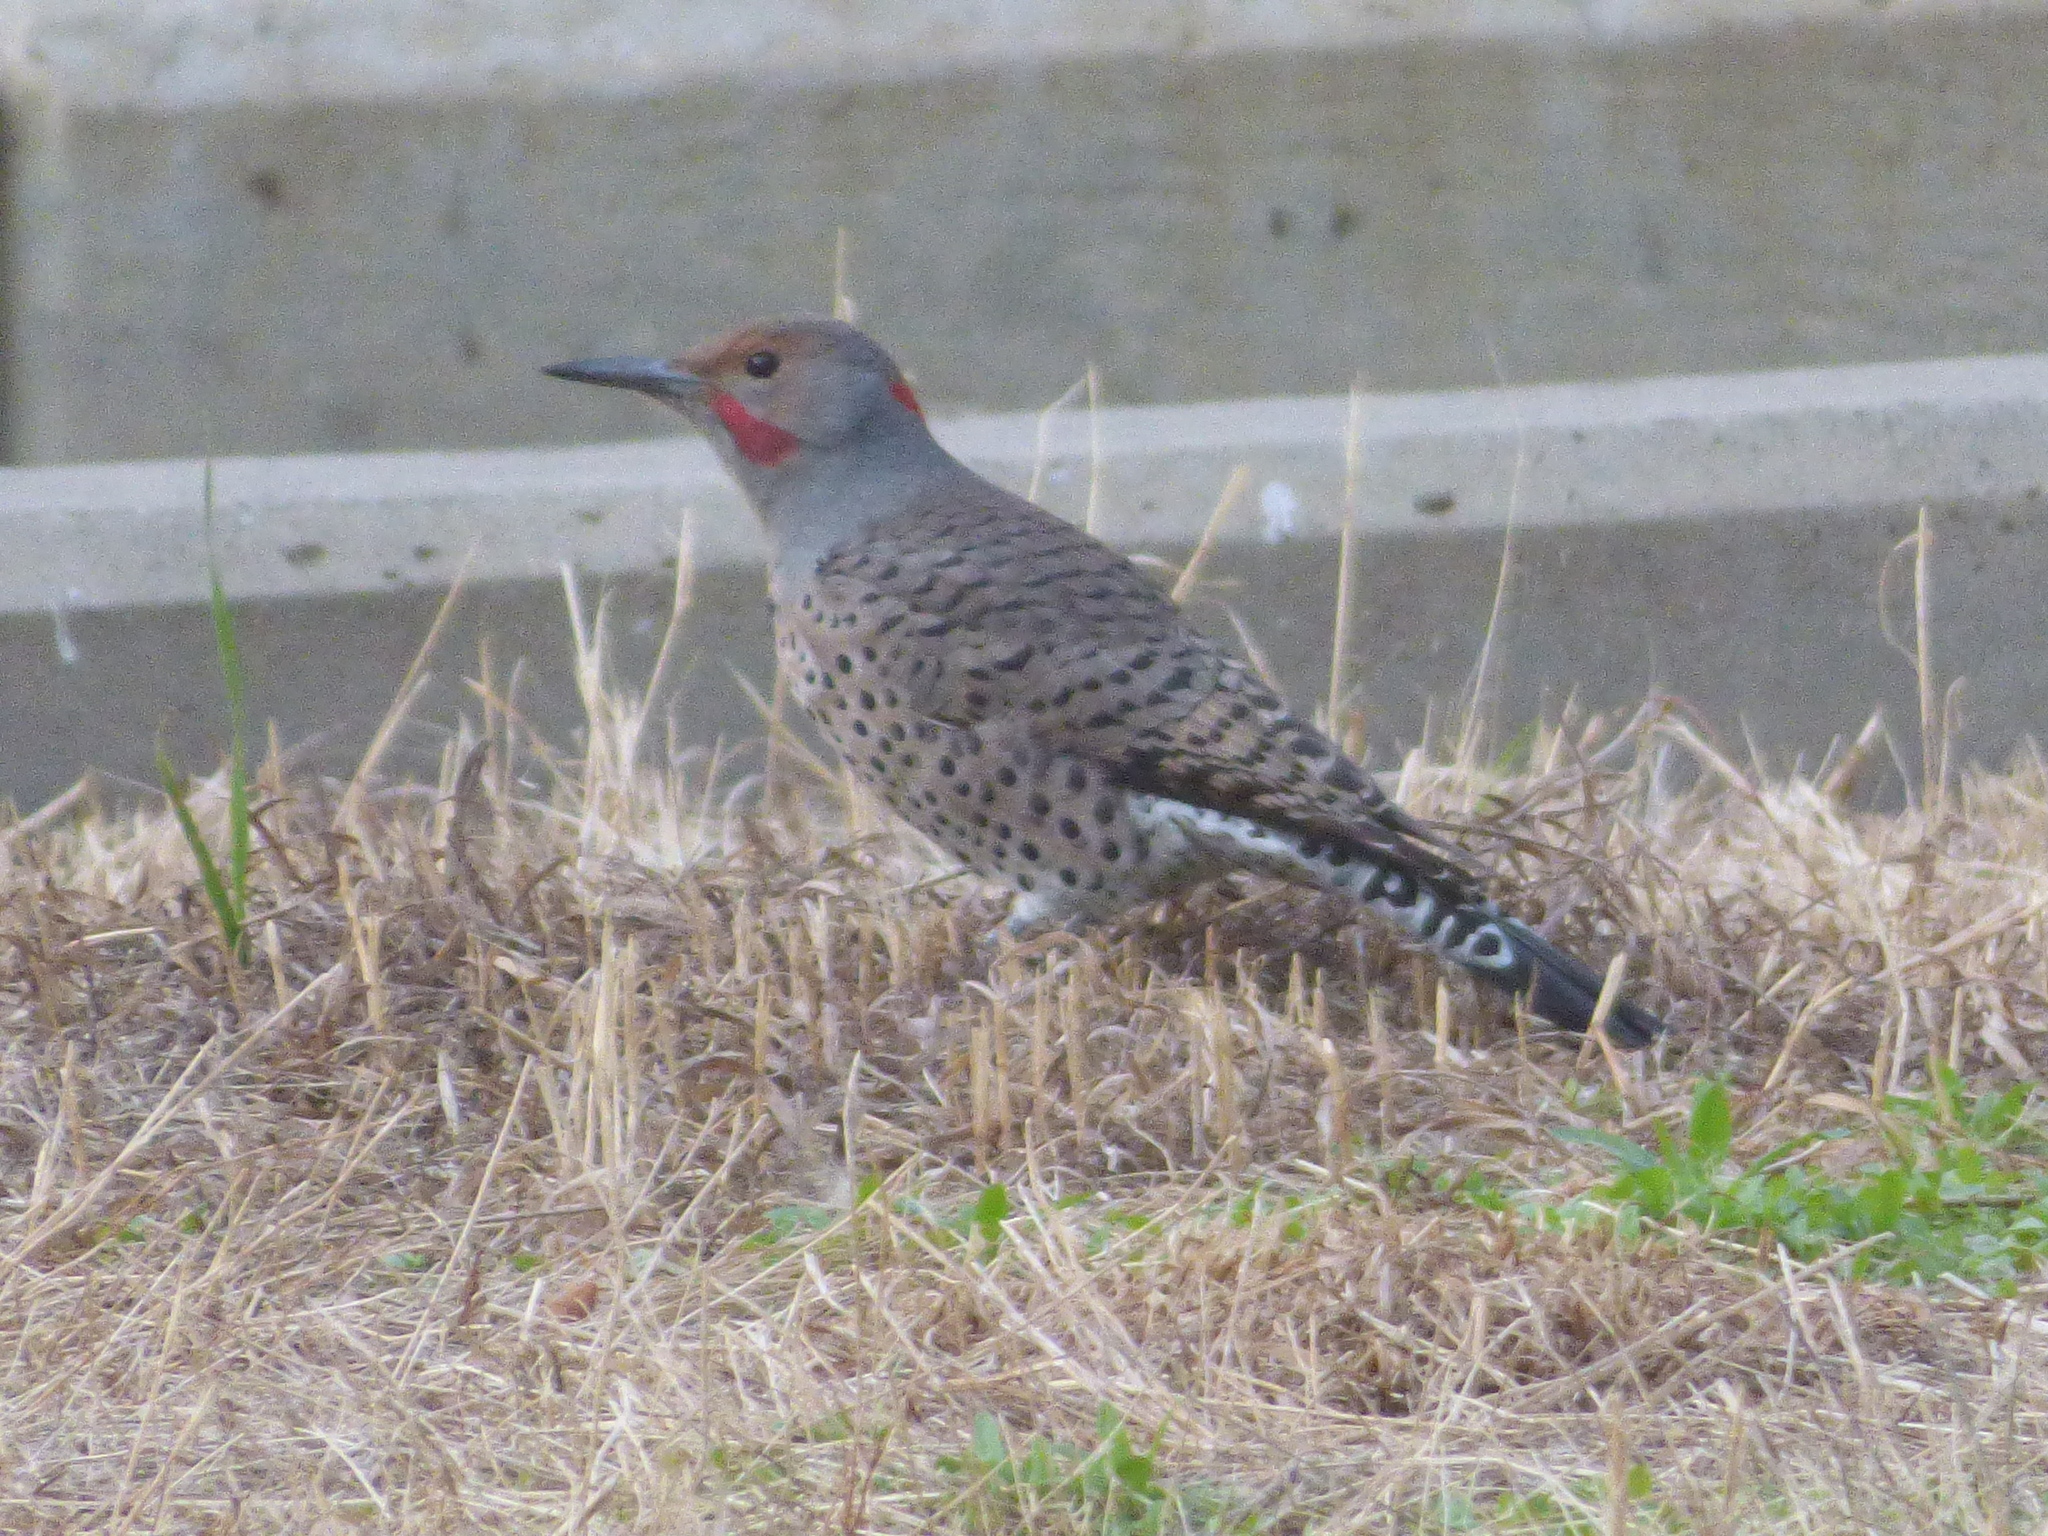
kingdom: Animalia
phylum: Chordata
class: Aves
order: Piciformes
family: Picidae
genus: Colaptes
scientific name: Colaptes
